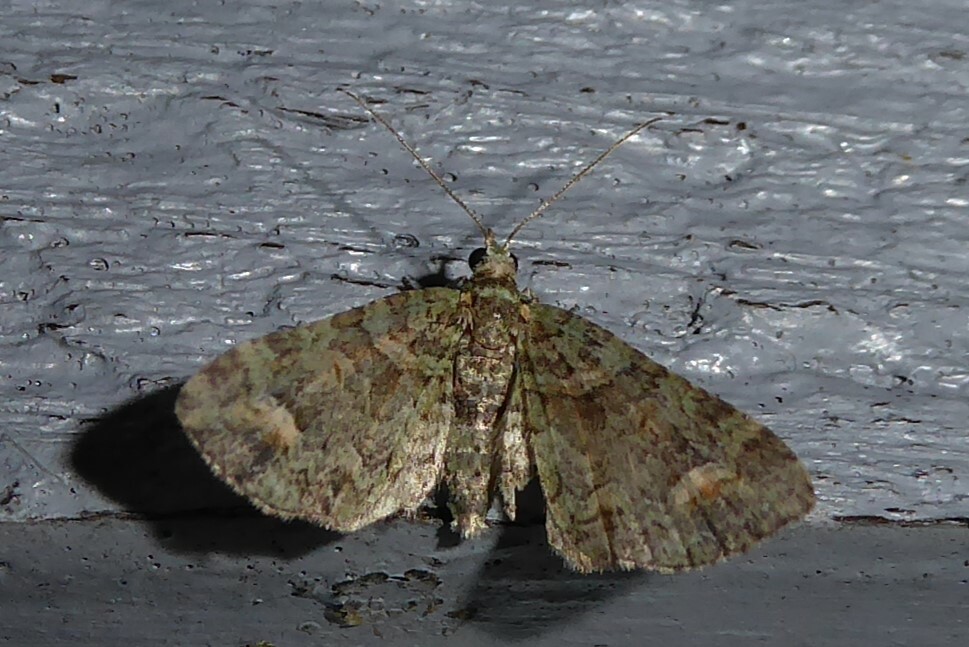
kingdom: Animalia
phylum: Arthropoda
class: Insecta
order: Lepidoptera
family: Geometridae
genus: Idaea
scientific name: Idaea mutanda
